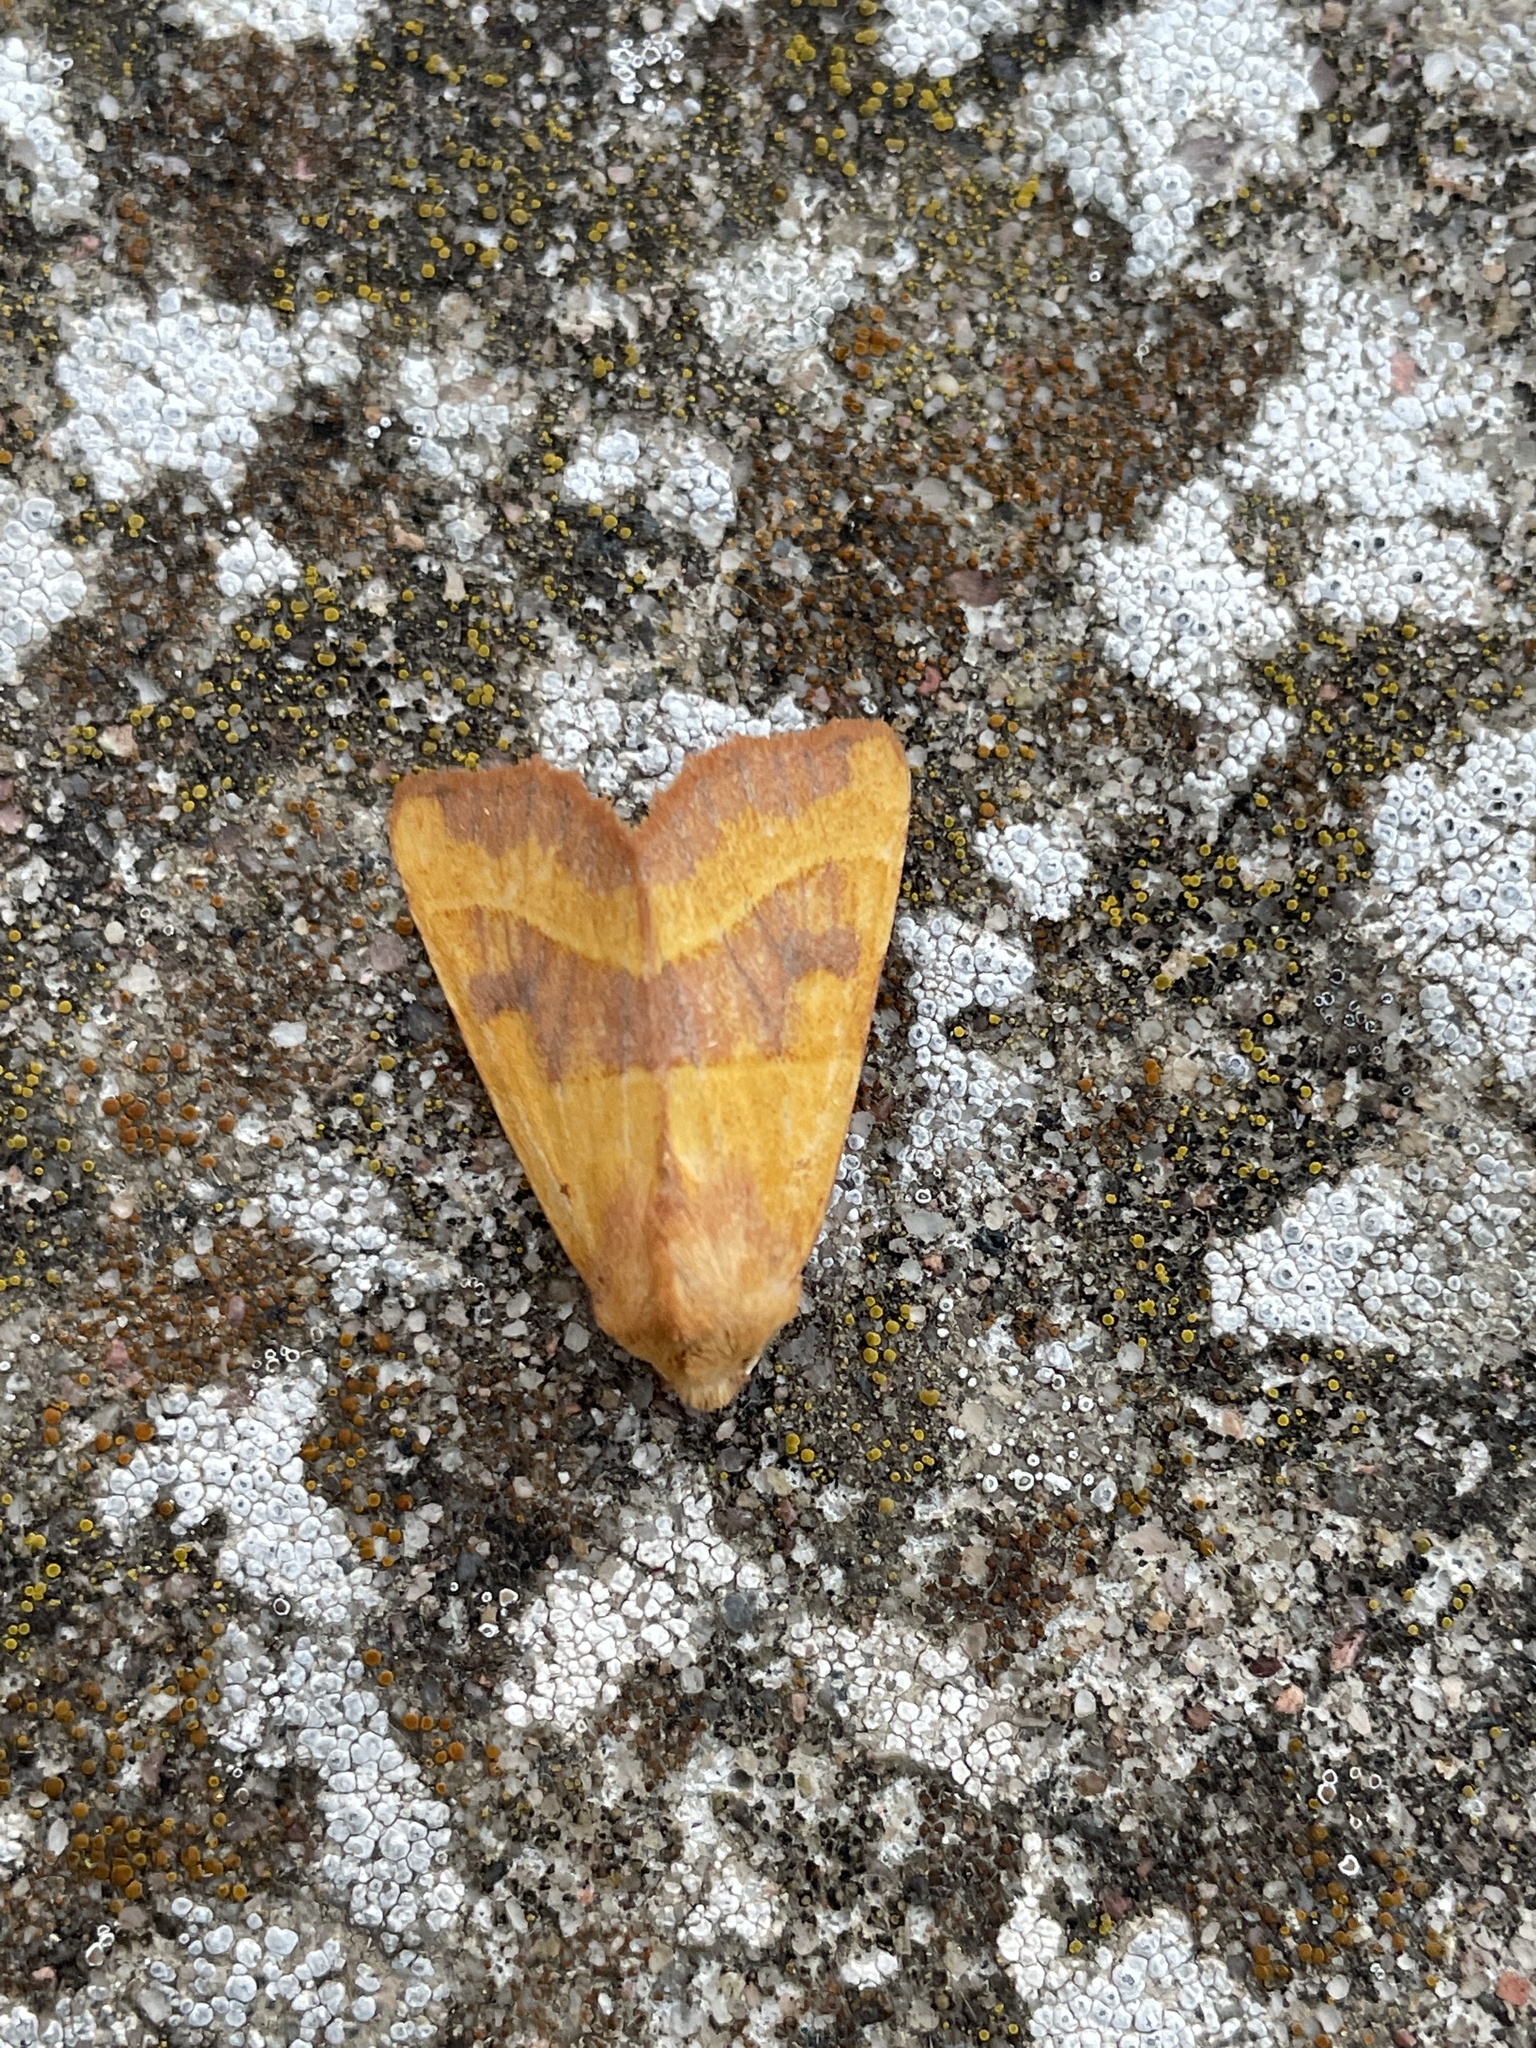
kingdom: Animalia
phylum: Arthropoda
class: Insecta
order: Lepidoptera
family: Noctuidae
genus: Atethmia
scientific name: Atethmia centrago
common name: Centre-barred sallow
